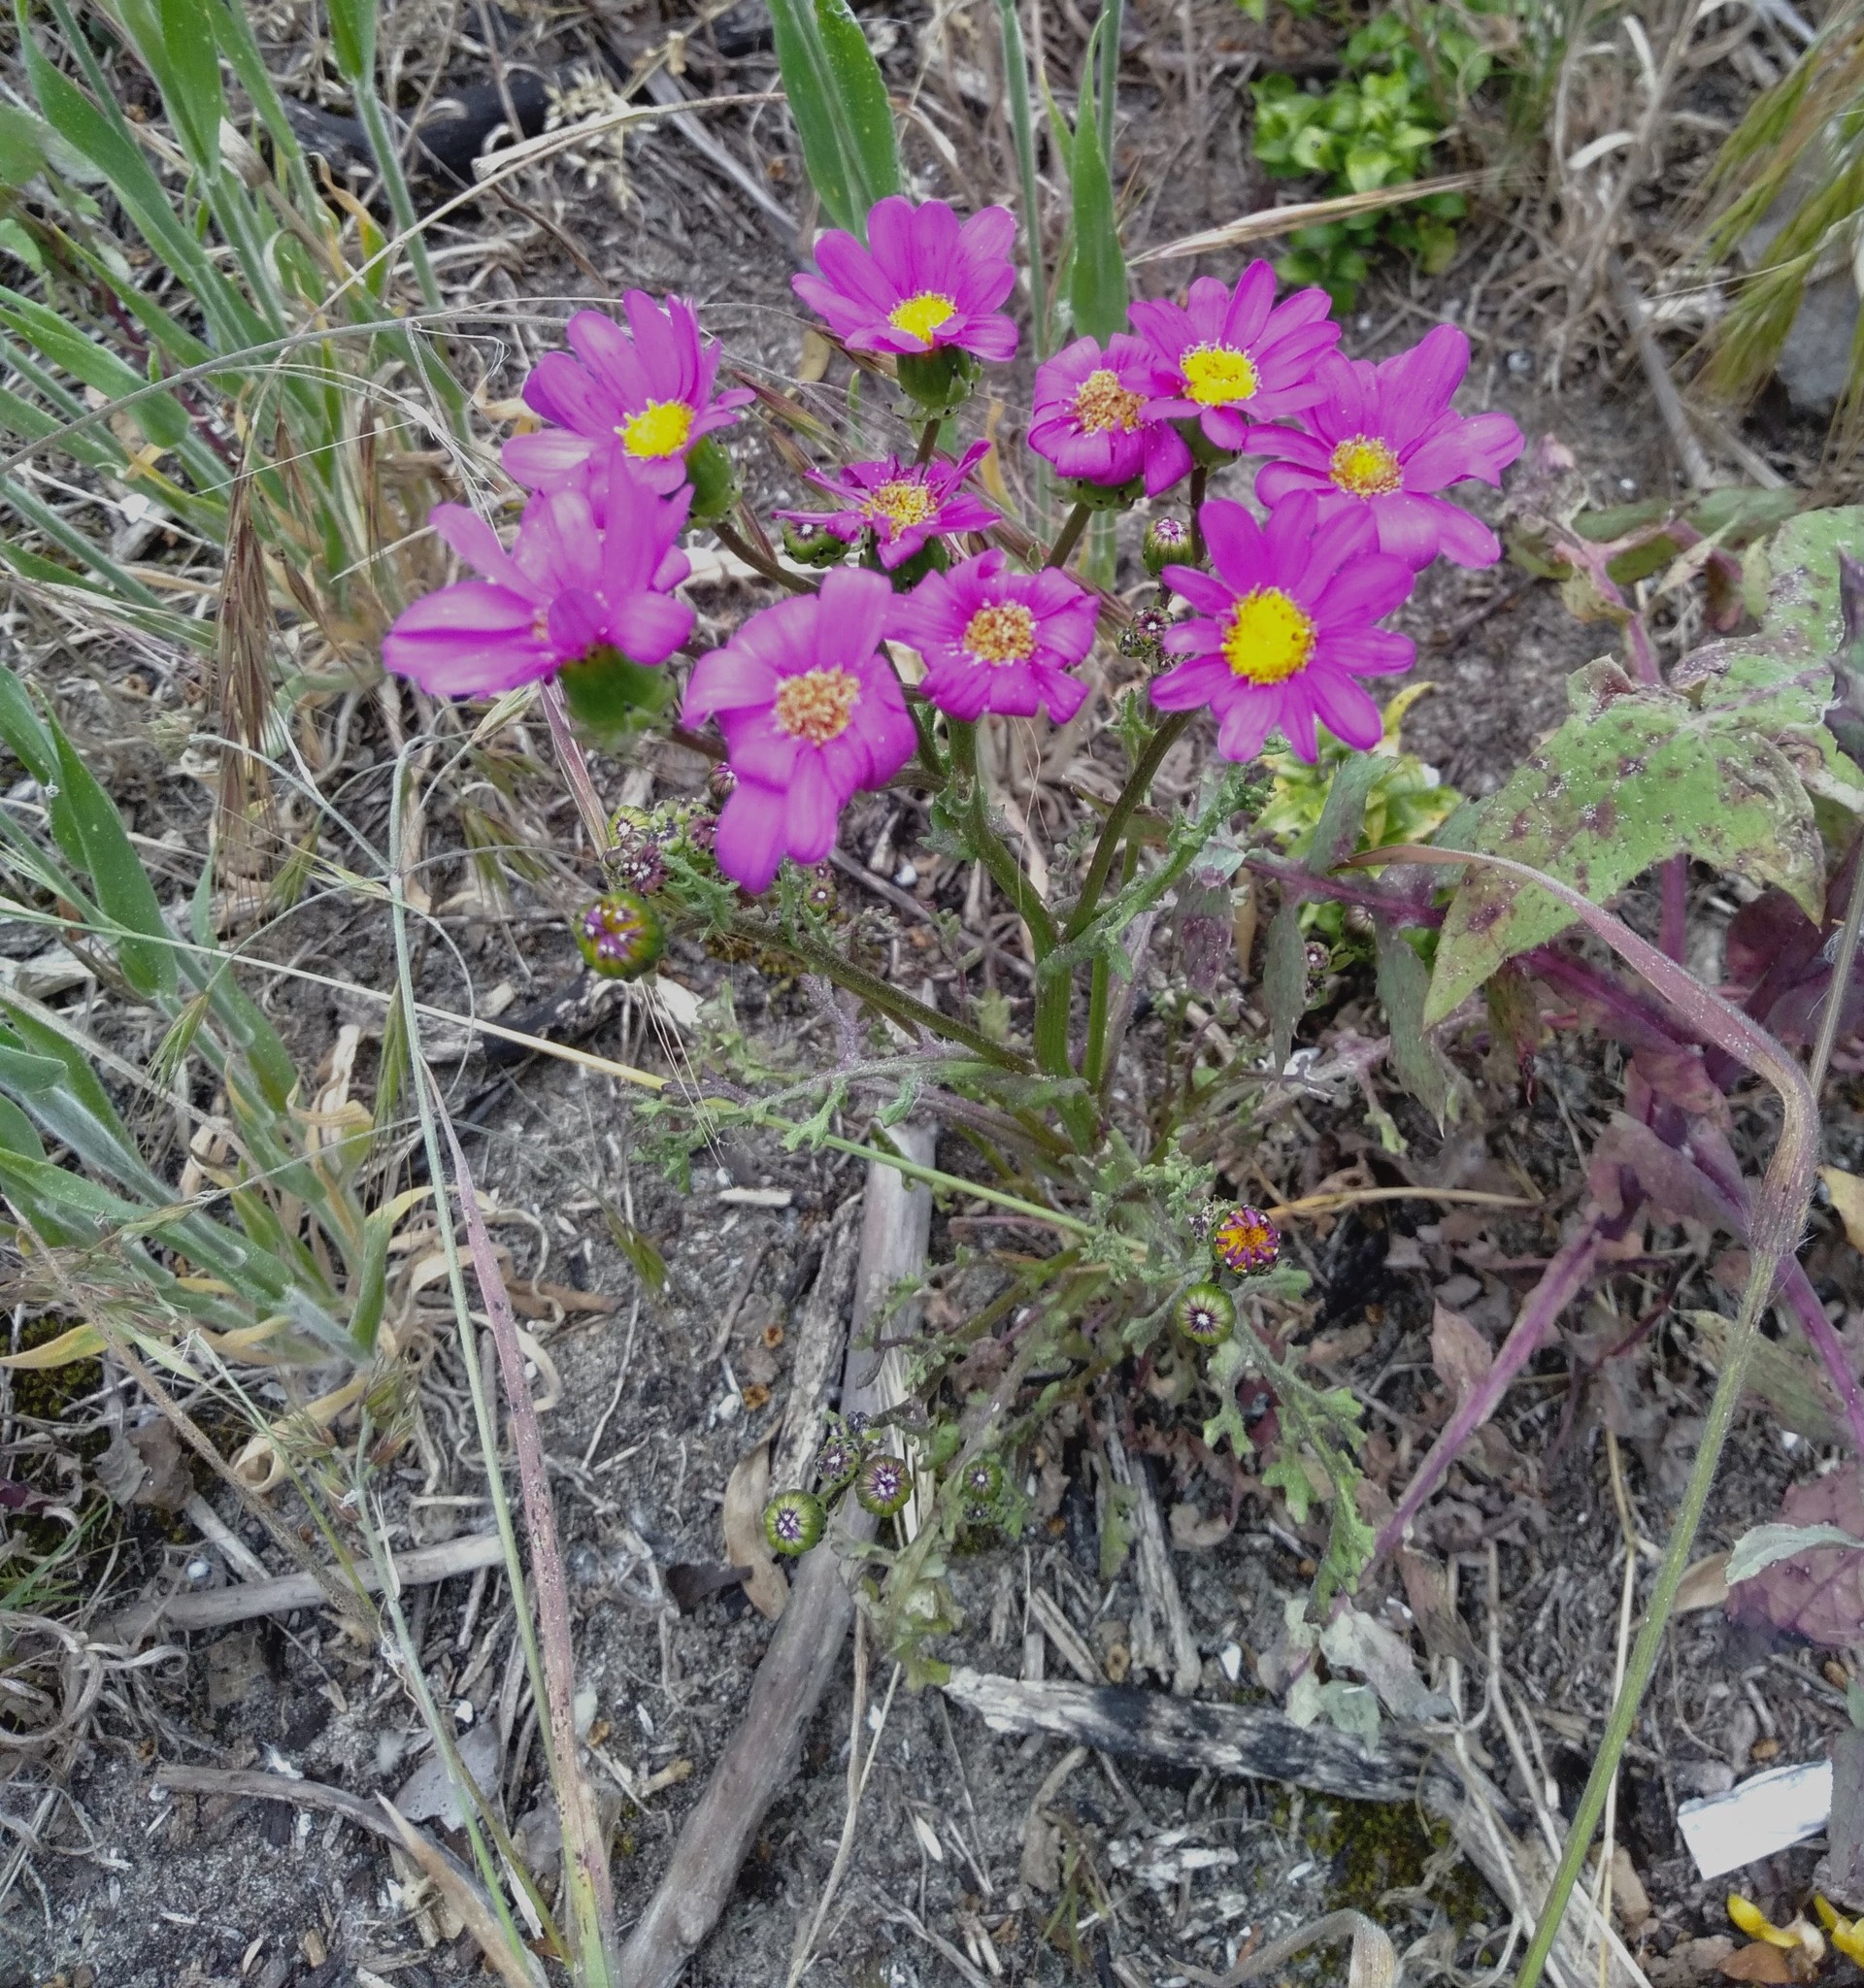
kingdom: Plantae
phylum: Tracheophyta
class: Magnoliopsida
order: Asterales
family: Asteraceae
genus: Senecio
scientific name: Senecio elegans
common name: Purple groundsel
